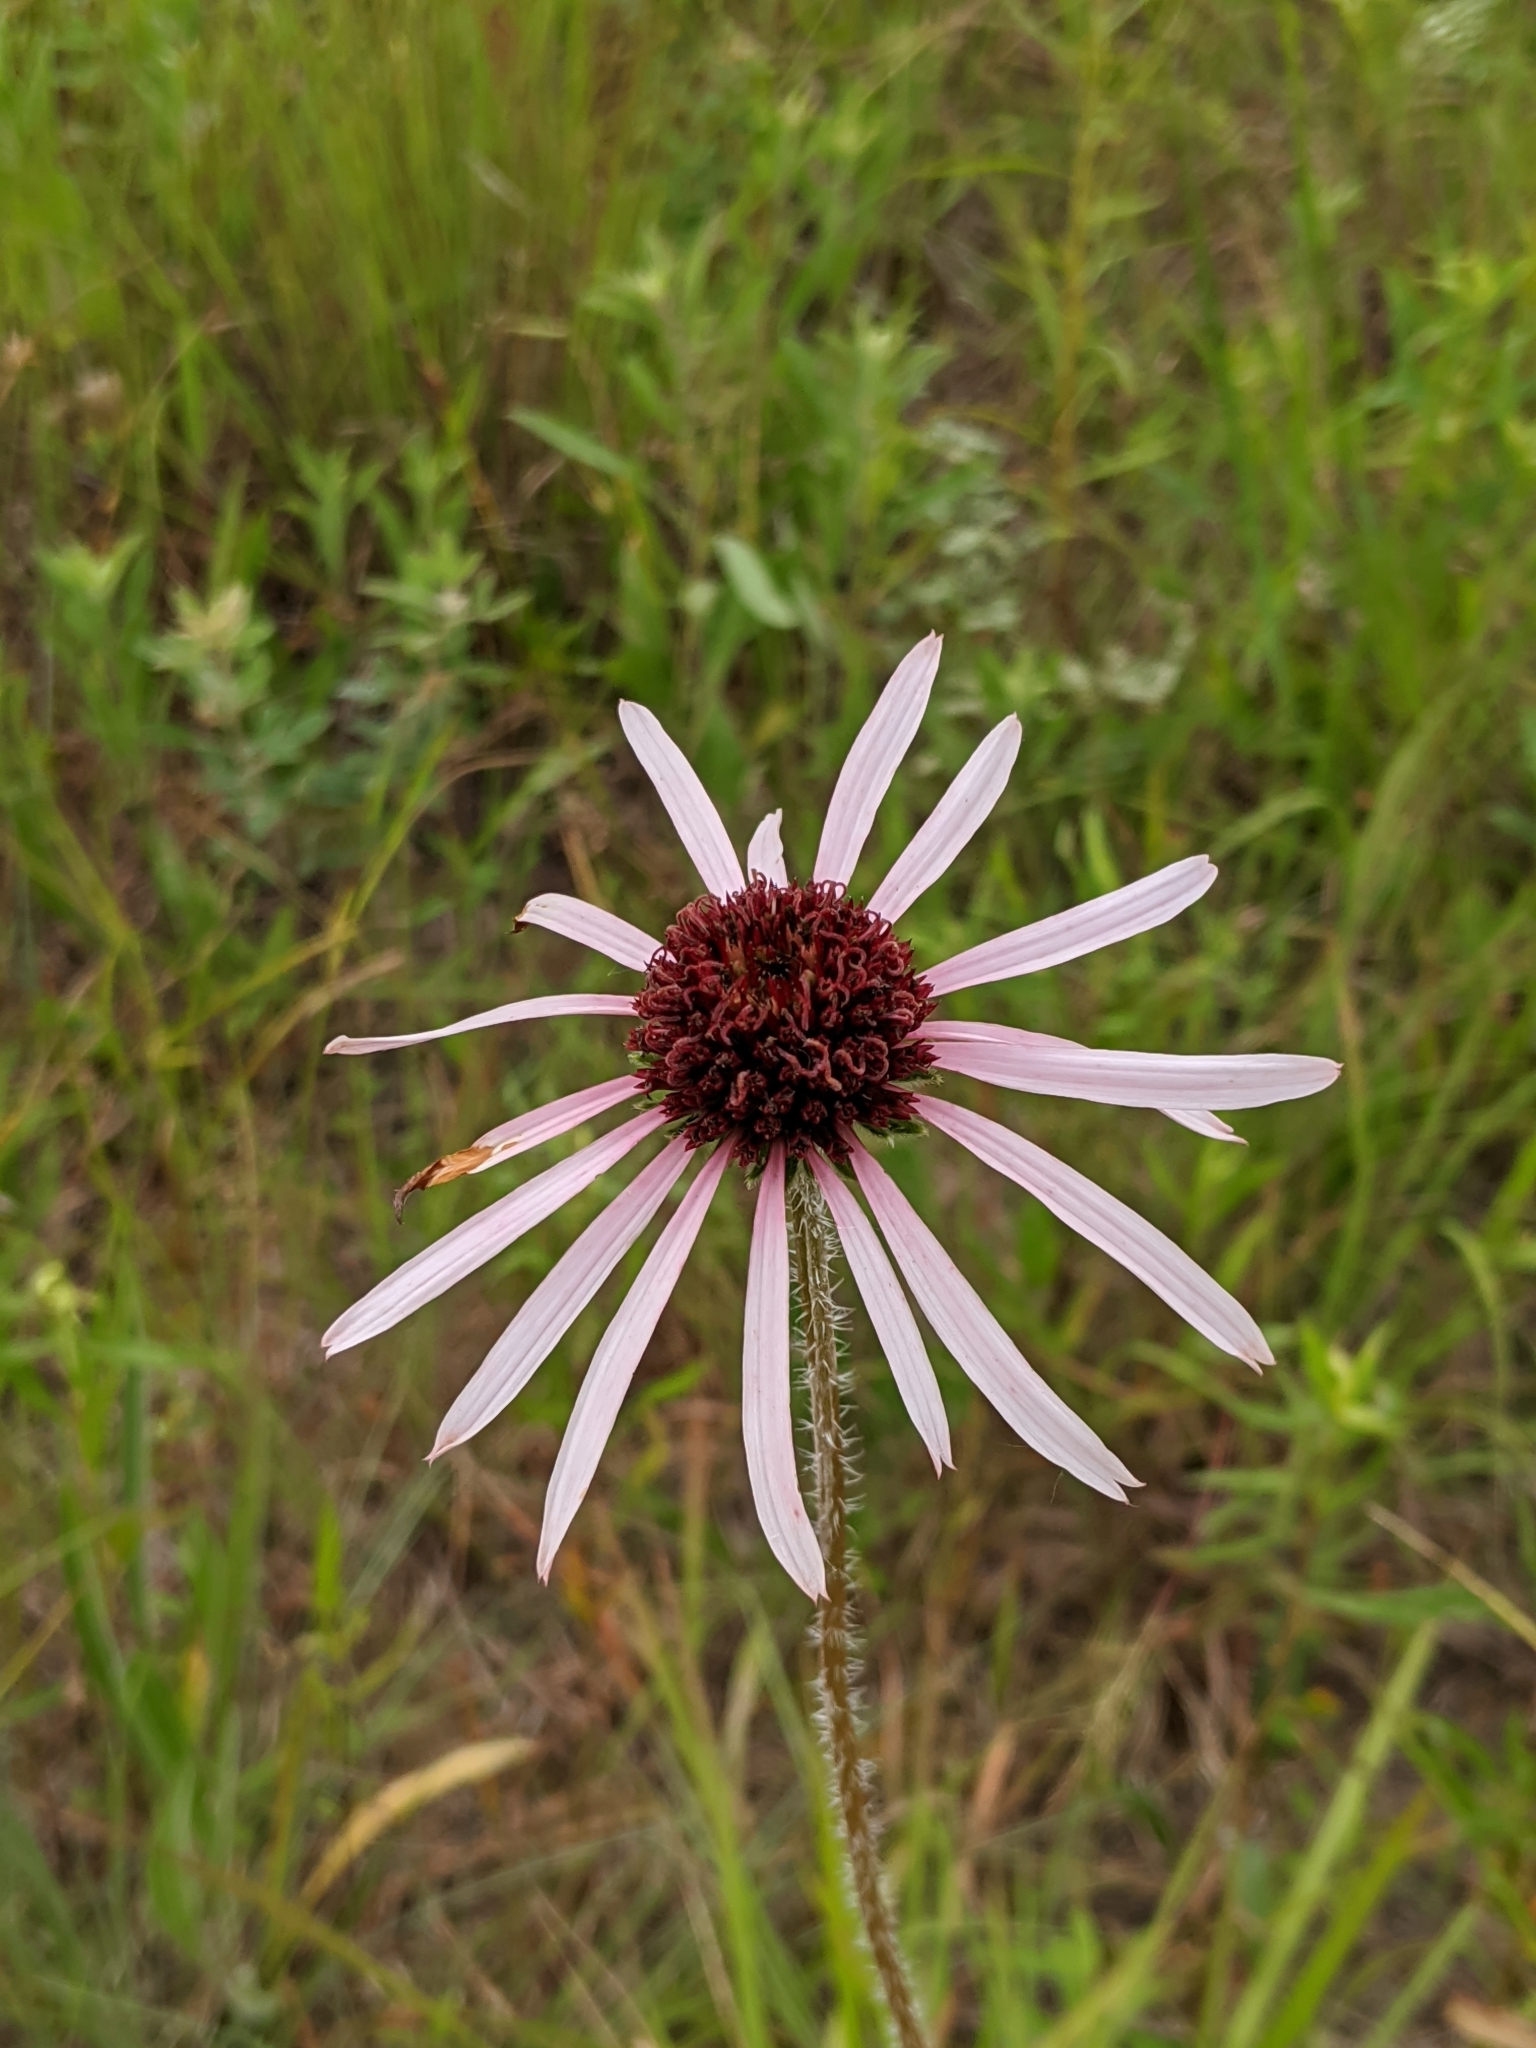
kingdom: Plantae
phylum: Tracheophyta
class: Magnoliopsida
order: Asterales
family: Asteraceae
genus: Echinacea
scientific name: Echinacea pallida
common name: Pale echinacea
